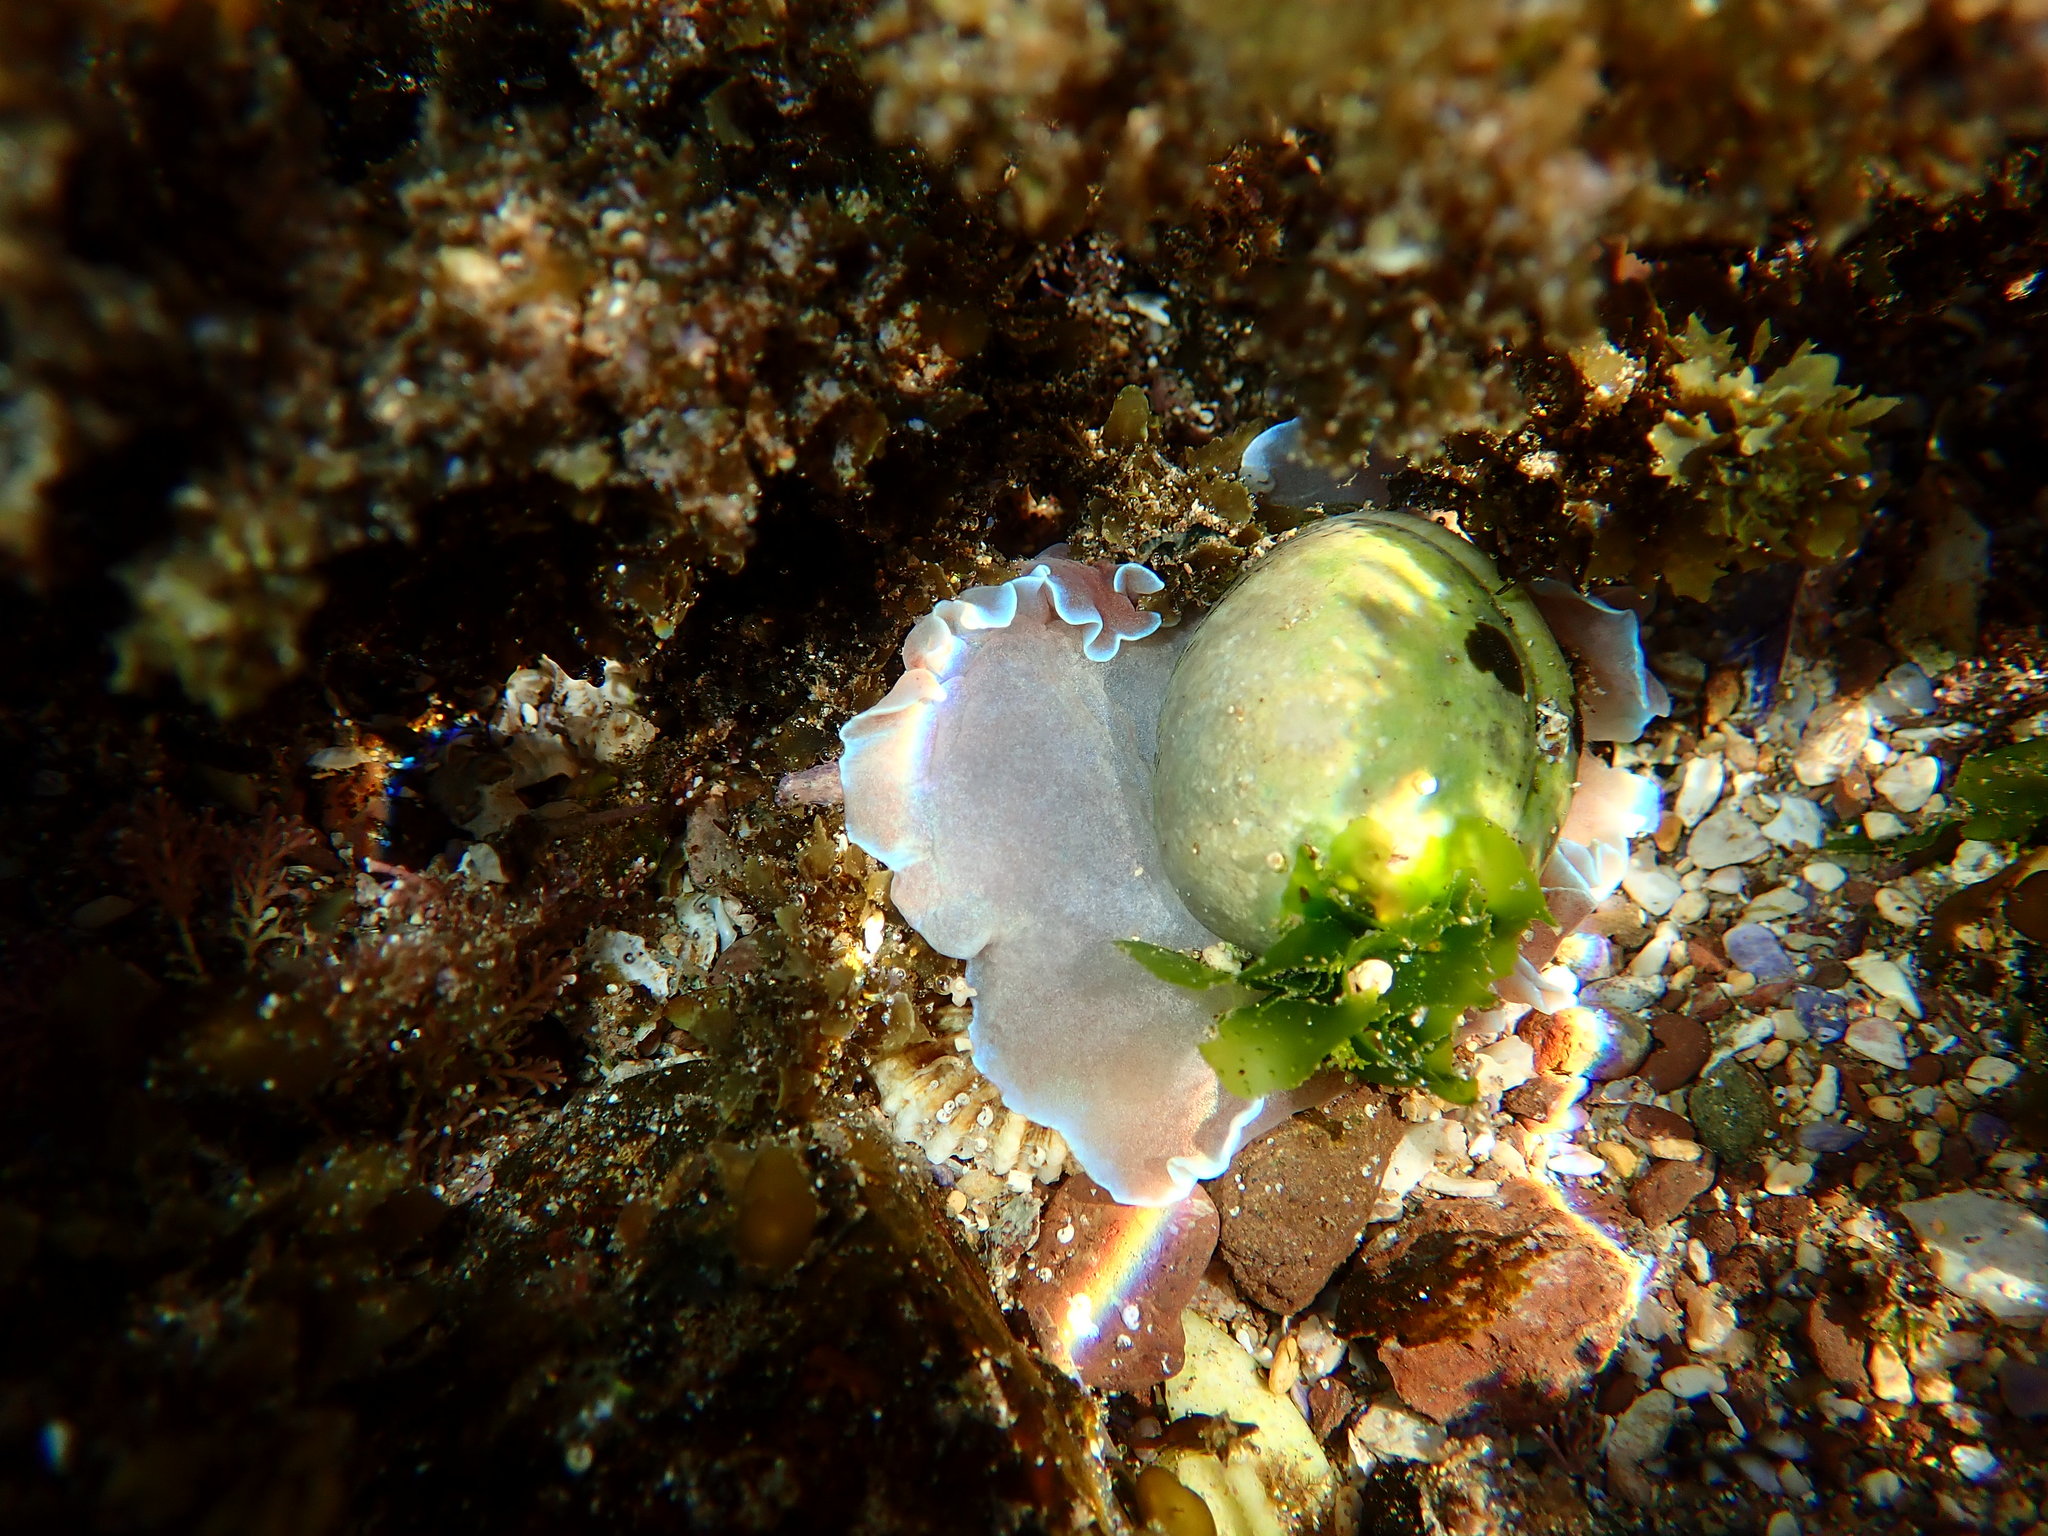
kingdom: Animalia
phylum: Mollusca
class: Gastropoda
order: Cephalaspidea
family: Aplustridae
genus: Hydatina
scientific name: Hydatina physis
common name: Brown-line paperbubble
